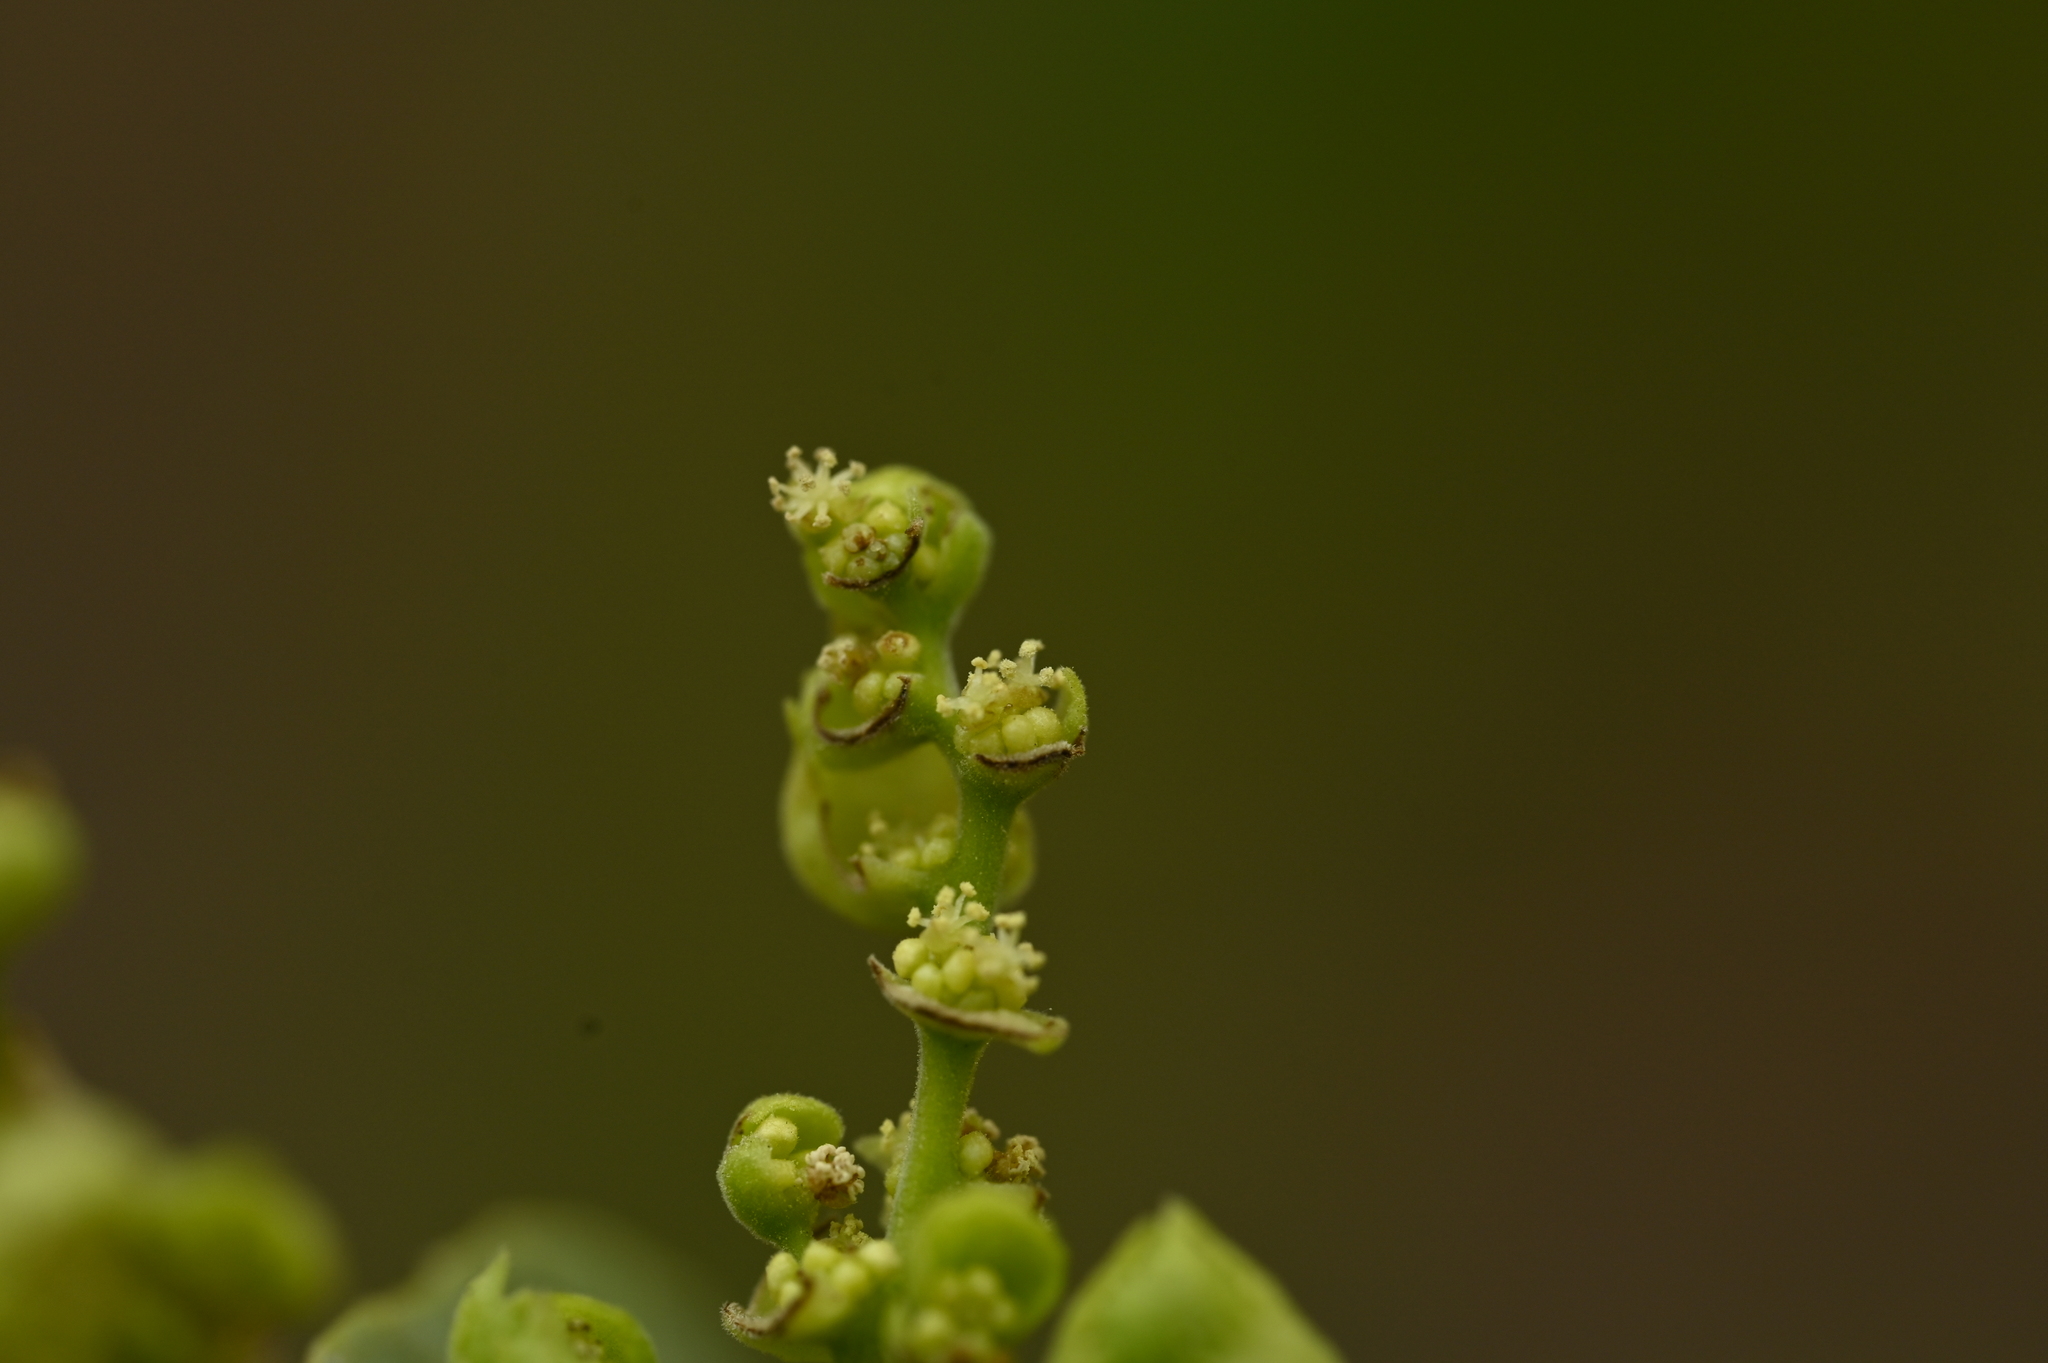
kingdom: Plantae
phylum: Tracheophyta
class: Magnoliopsida
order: Malpighiales
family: Euphorbiaceae
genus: Macaranga
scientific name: Macaranga tanarius
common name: Parasol leaf tree
